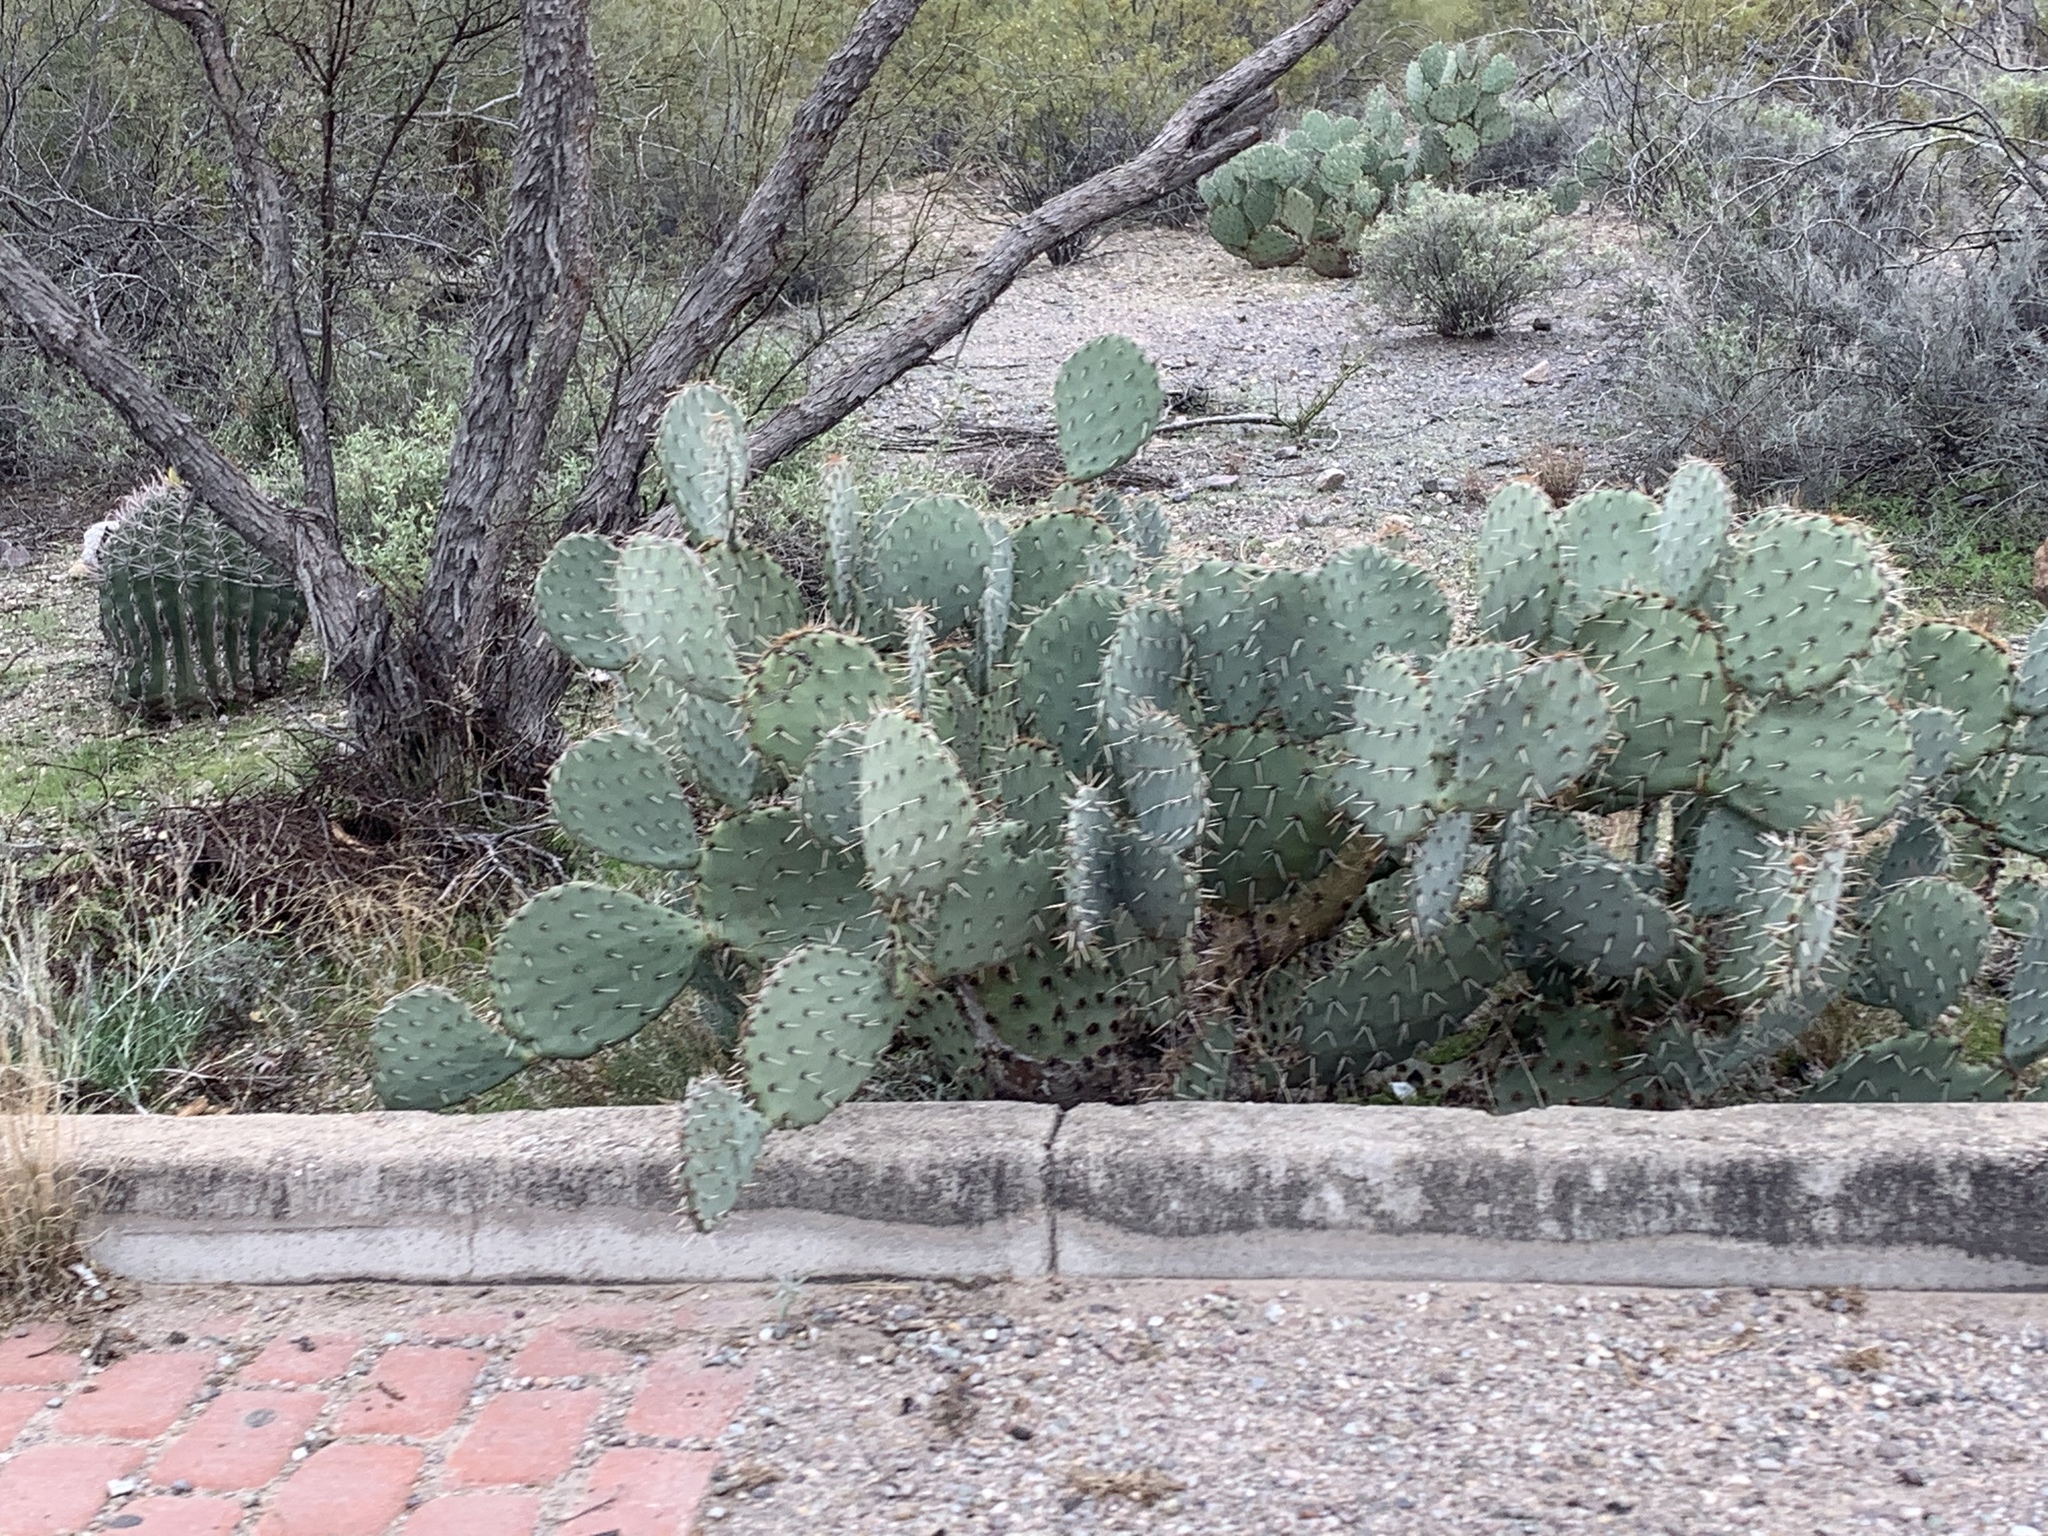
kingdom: Plantae
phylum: Tracheophyta
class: Magnoliopsida
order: Caryophyllales
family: Cactaceae
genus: Opuntia
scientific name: Opuntia engelmannii
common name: Cactus-apple
